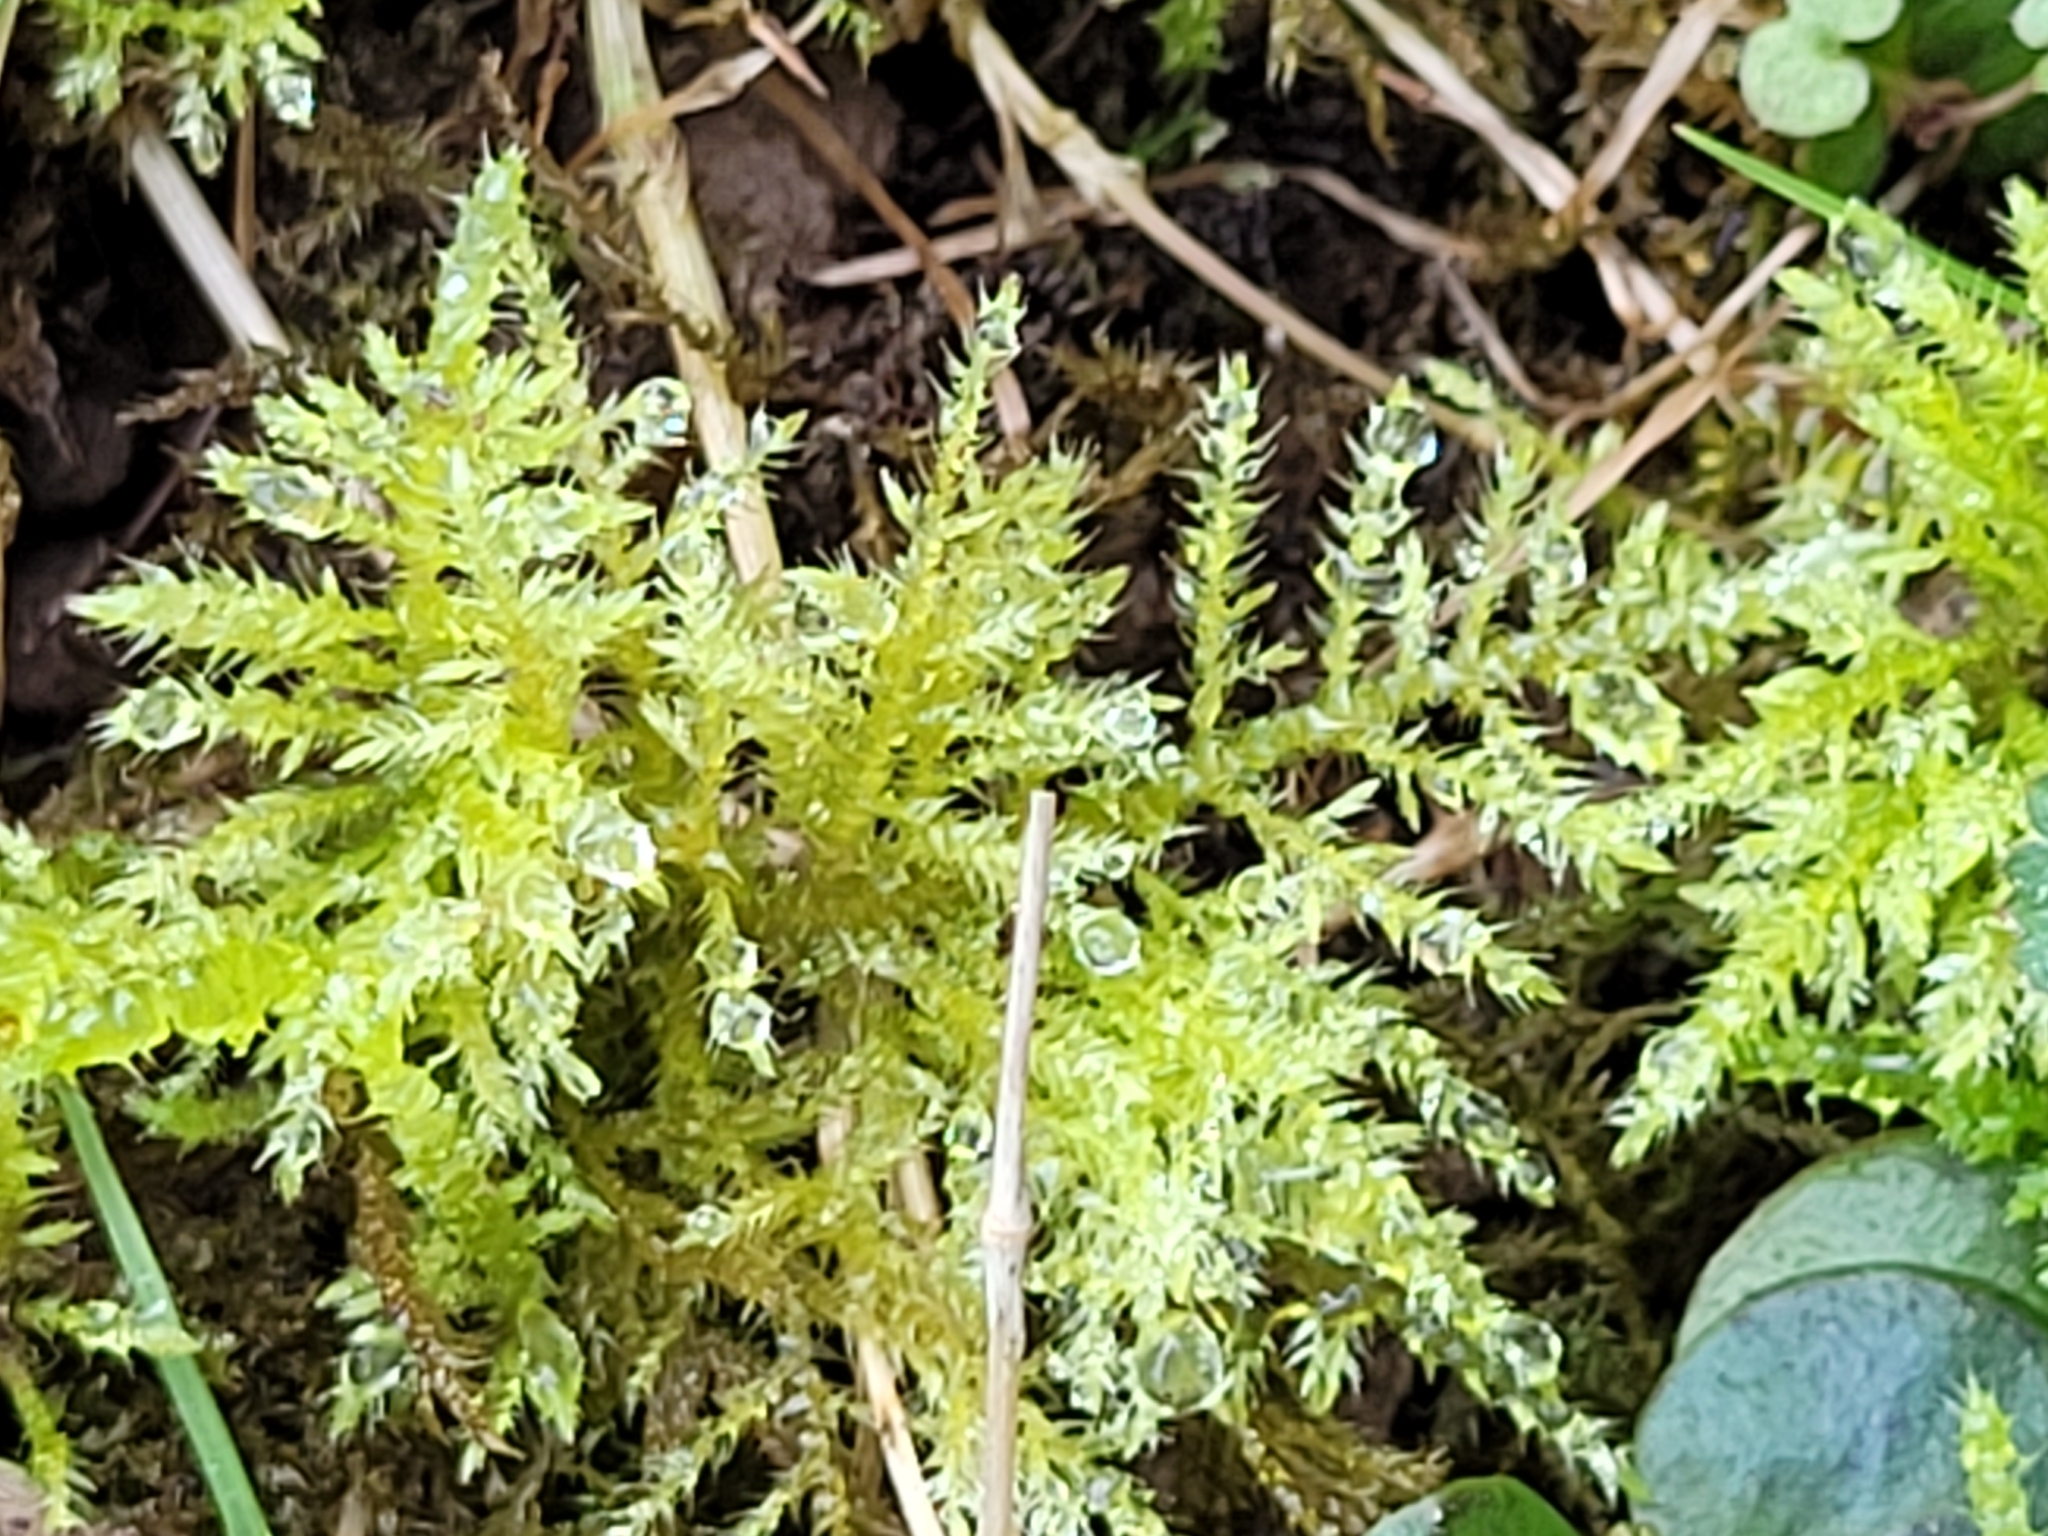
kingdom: Plantae
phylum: Bryophyta
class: Bryopsida
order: Hypnales
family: Brachytheciaceae
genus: Kindbergia
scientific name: Kindbergia praelonga
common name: Slender beaked moss
